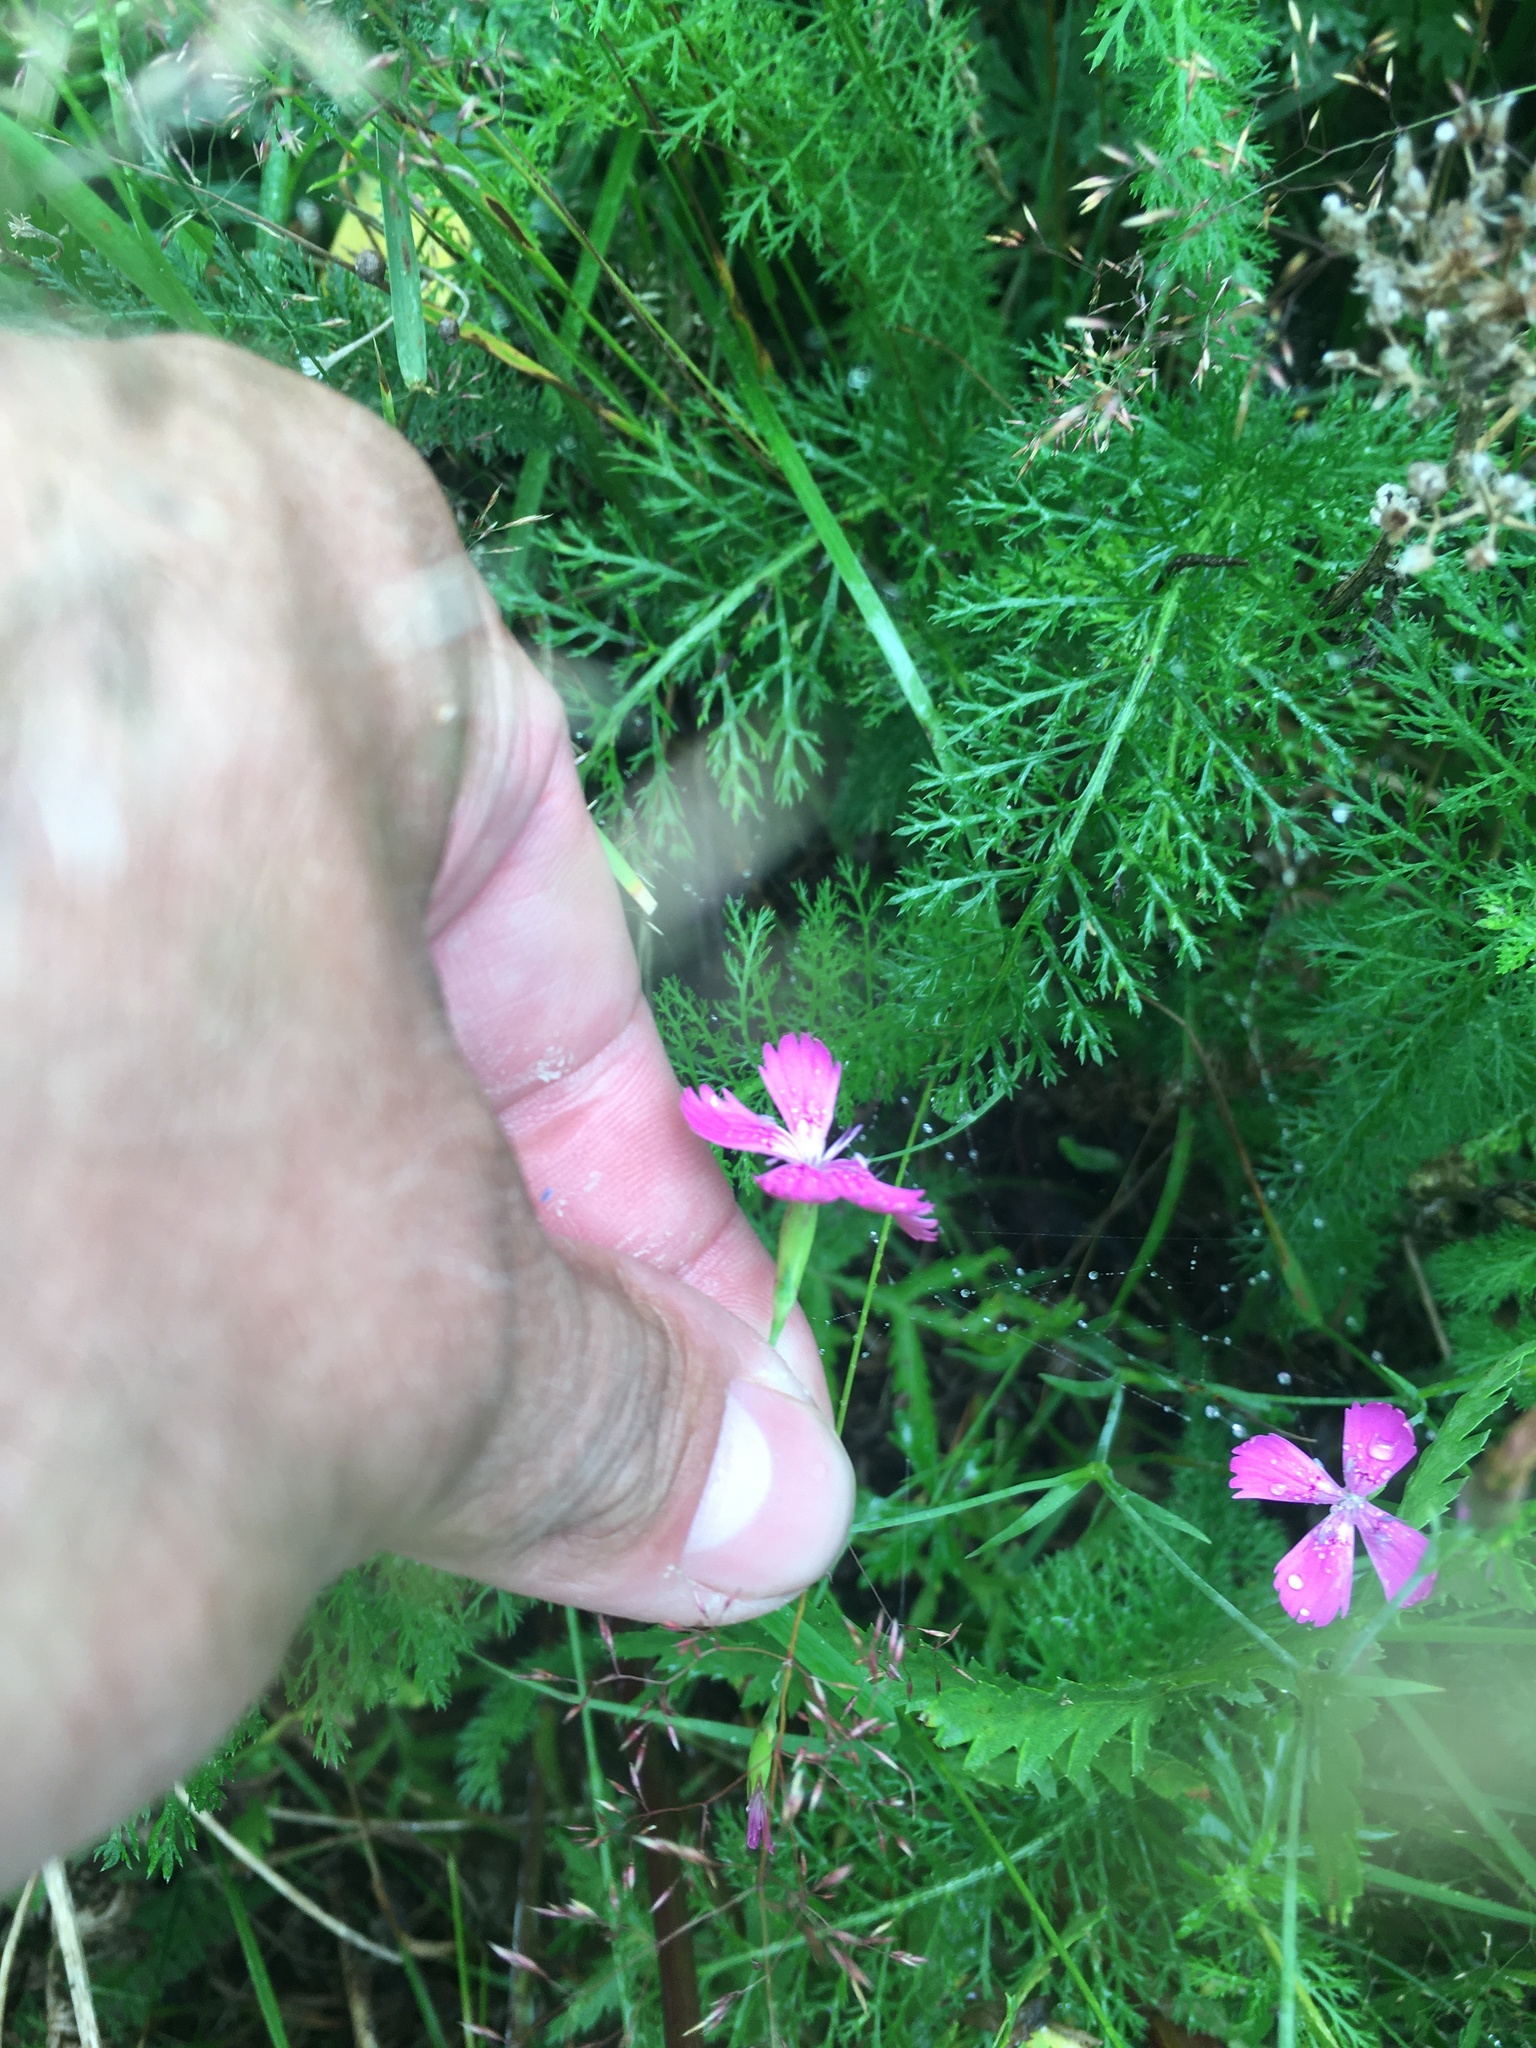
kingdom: Plantae
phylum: Tracheophyta
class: Magnoliopsida
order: Caryophyllales
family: Caryophyllaceae
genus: Dianthus
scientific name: Dianthus deltoides
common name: Maiden pink
